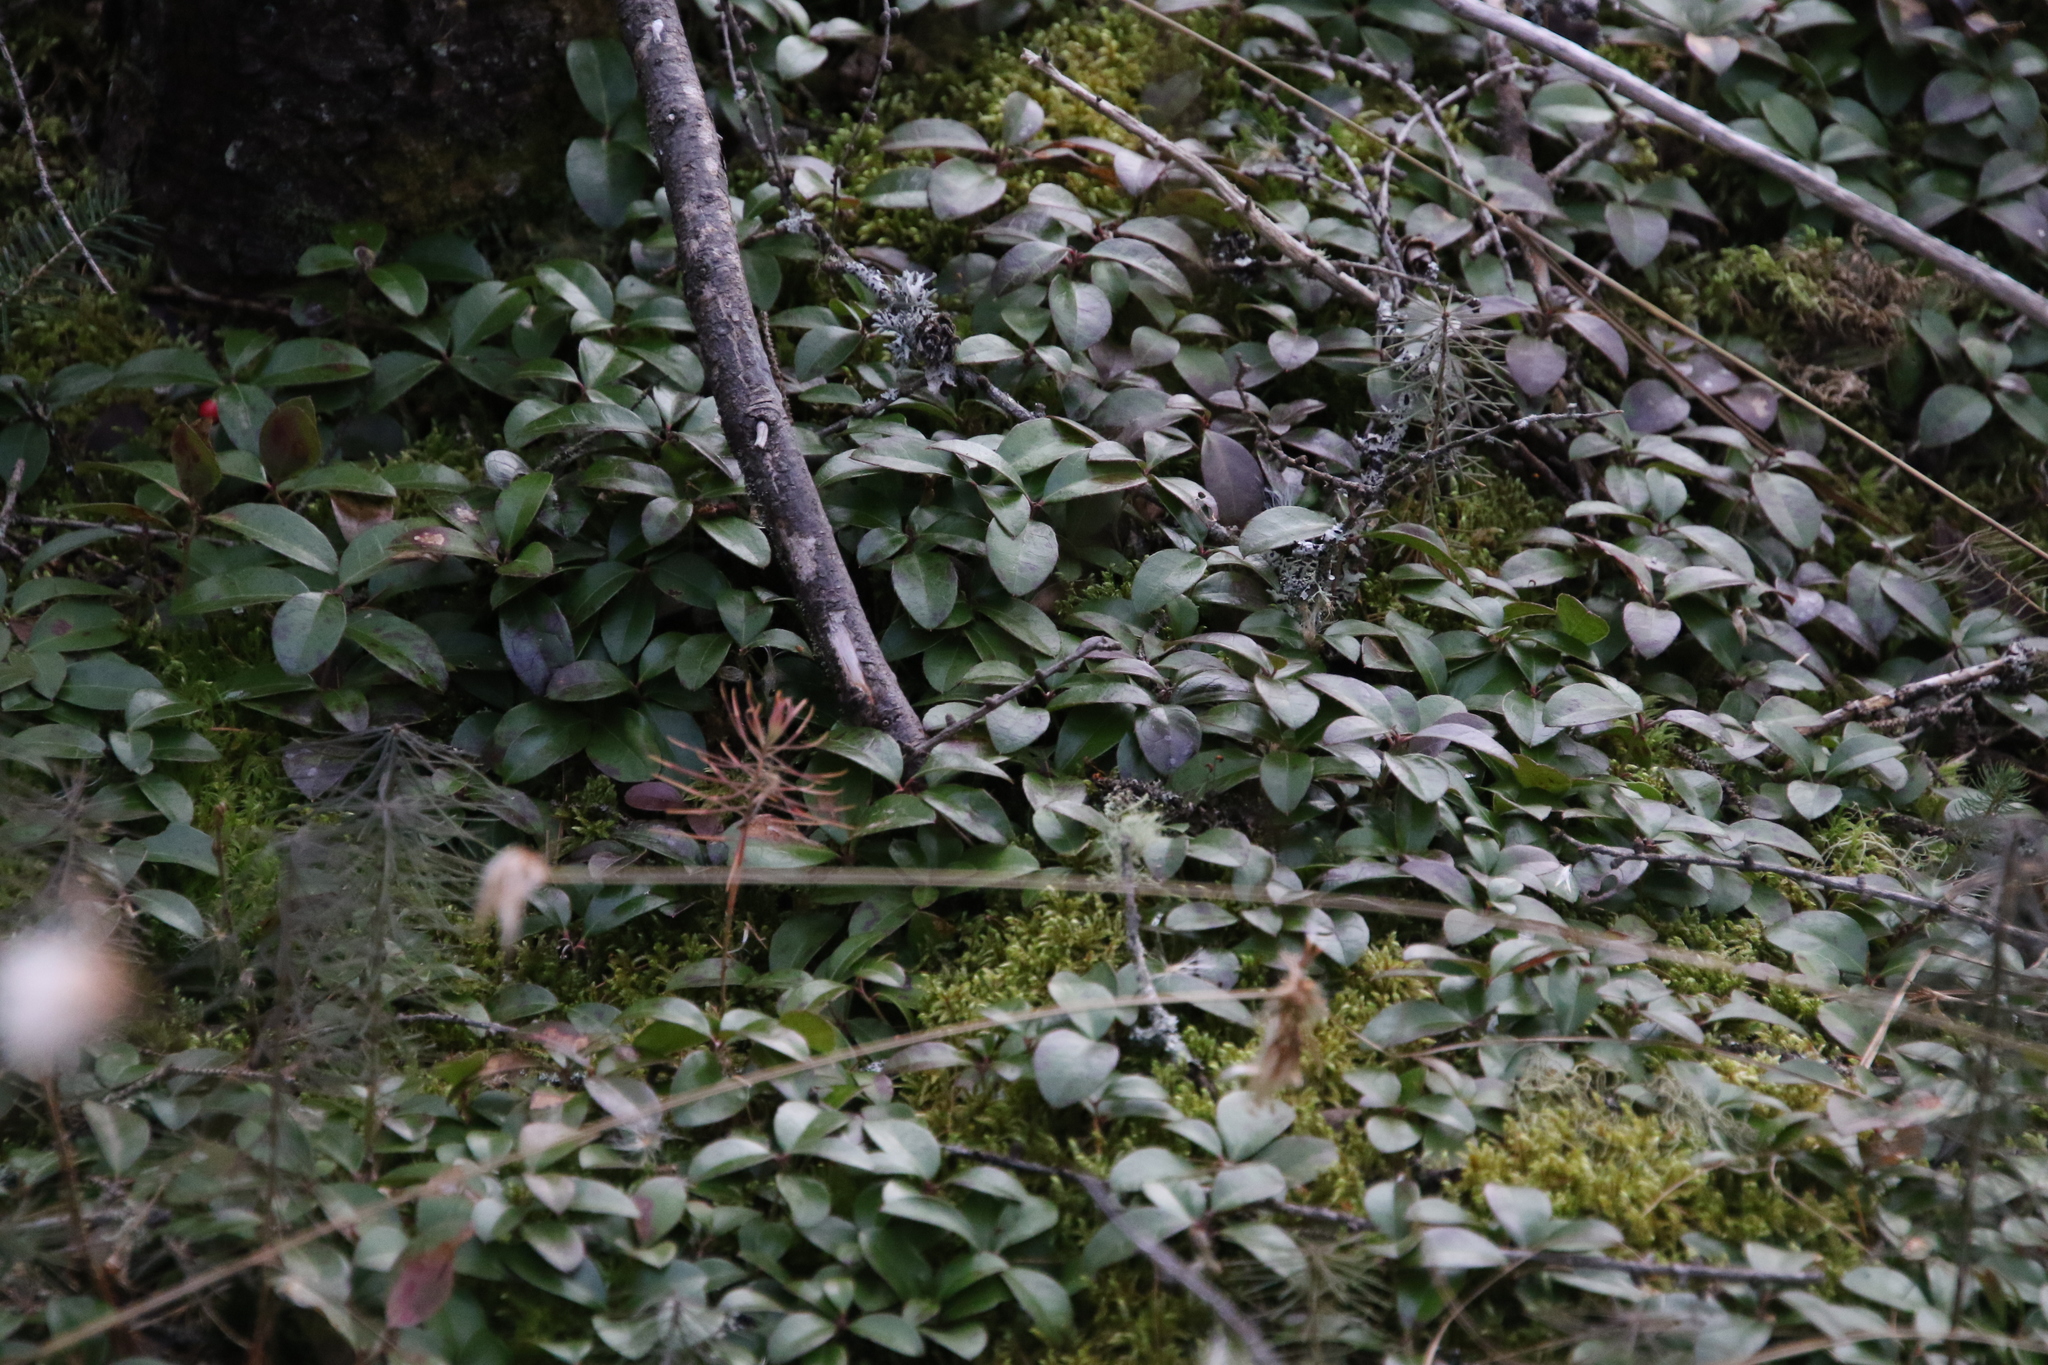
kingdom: Plantae
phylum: Tracheophyta
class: Magnoliopsida
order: Ericales
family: Ericaceae
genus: Gaultheria
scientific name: Gaultheria procumbens
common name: Checkerberry
